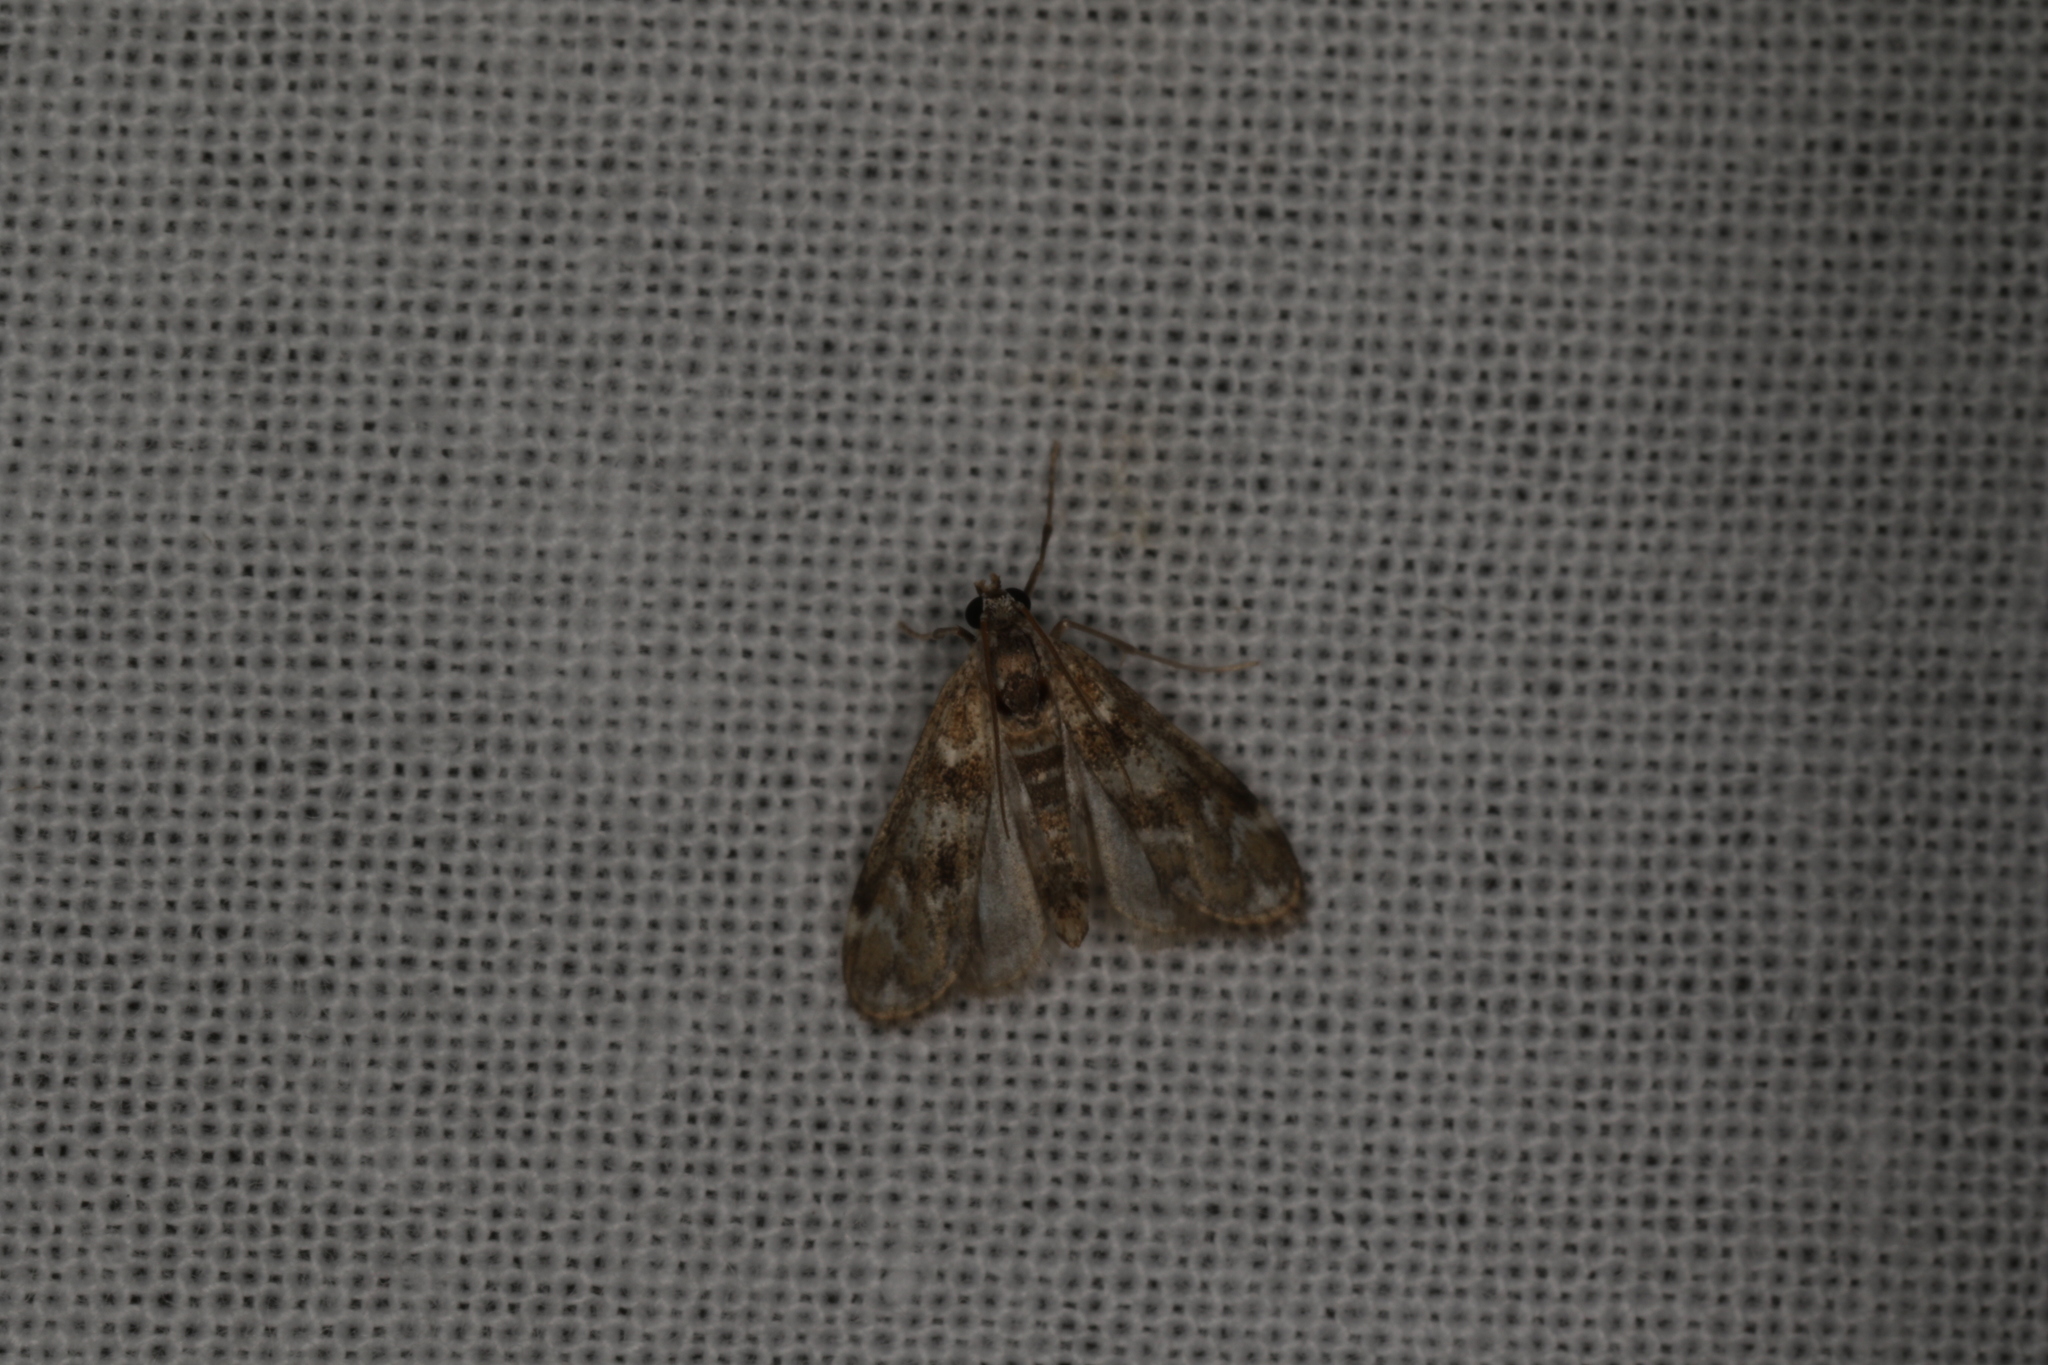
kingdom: Animalia
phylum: Arthropoda
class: Insecta
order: Lepidoptera
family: Crambidae
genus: Hygraula
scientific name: Hygraula nitens
